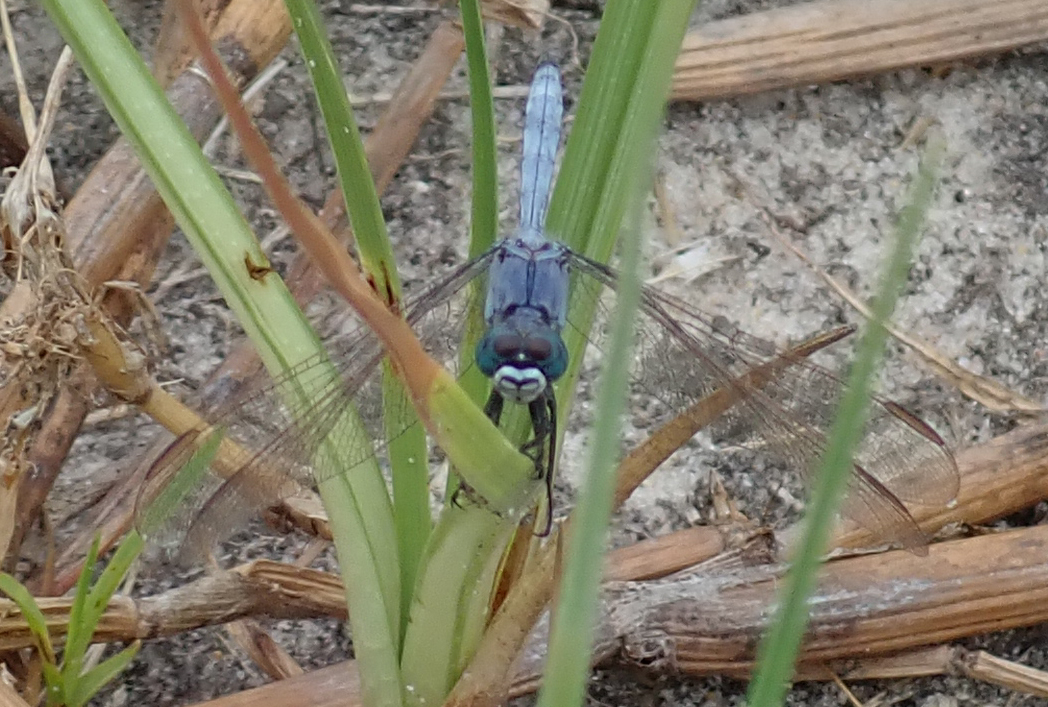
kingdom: Animalia
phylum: Arthropoda
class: Insecta
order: Odonata
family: Libellulidae
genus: Orthetrum
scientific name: Orthetrum icteromelas
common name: Spectacled skimmer
